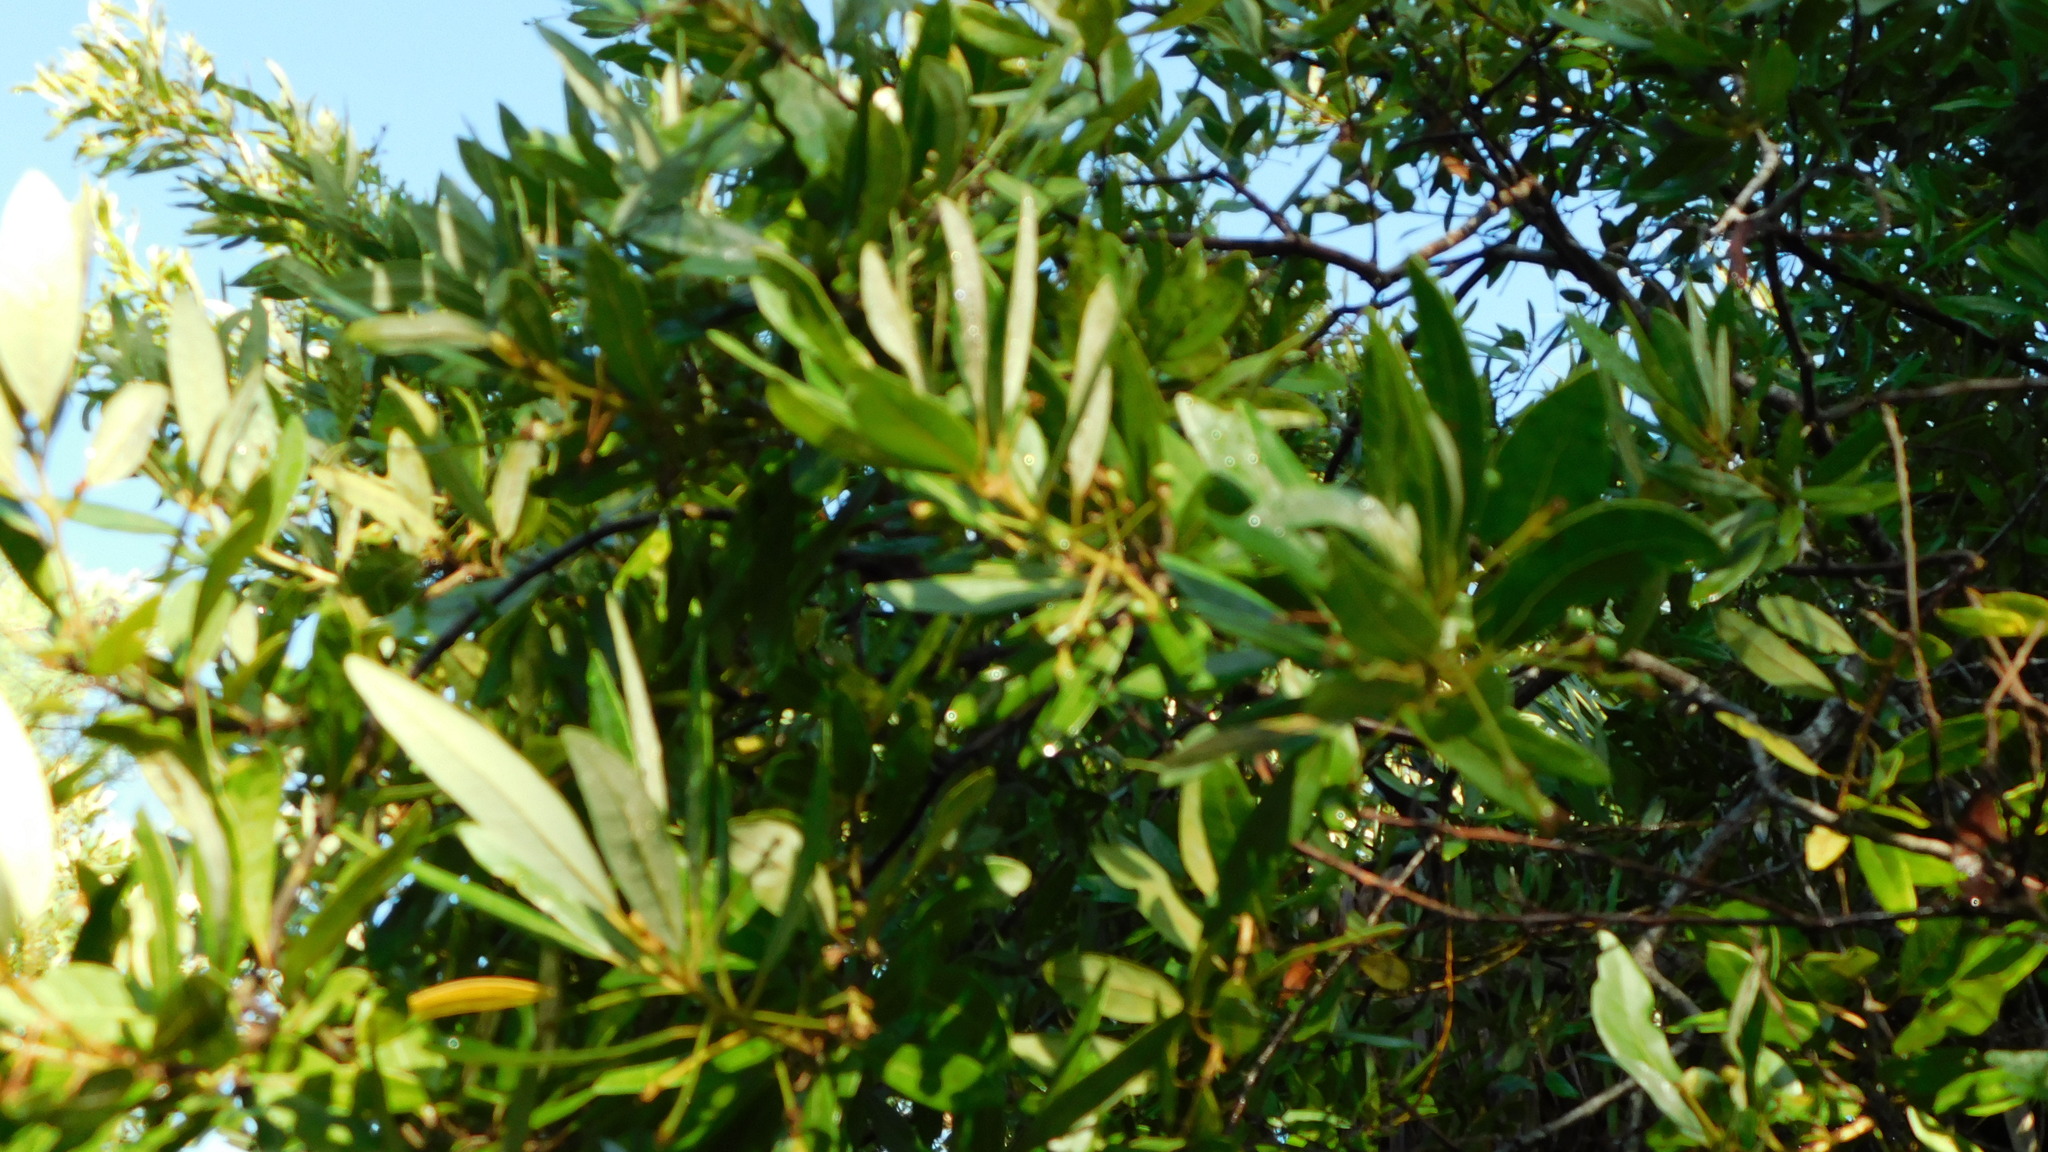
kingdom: Plantae
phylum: Tracheophyta
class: Magnoliopsida
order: Fagales
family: Myricaceae
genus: Morella
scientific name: Morella cerifera
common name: Wax myrtle
